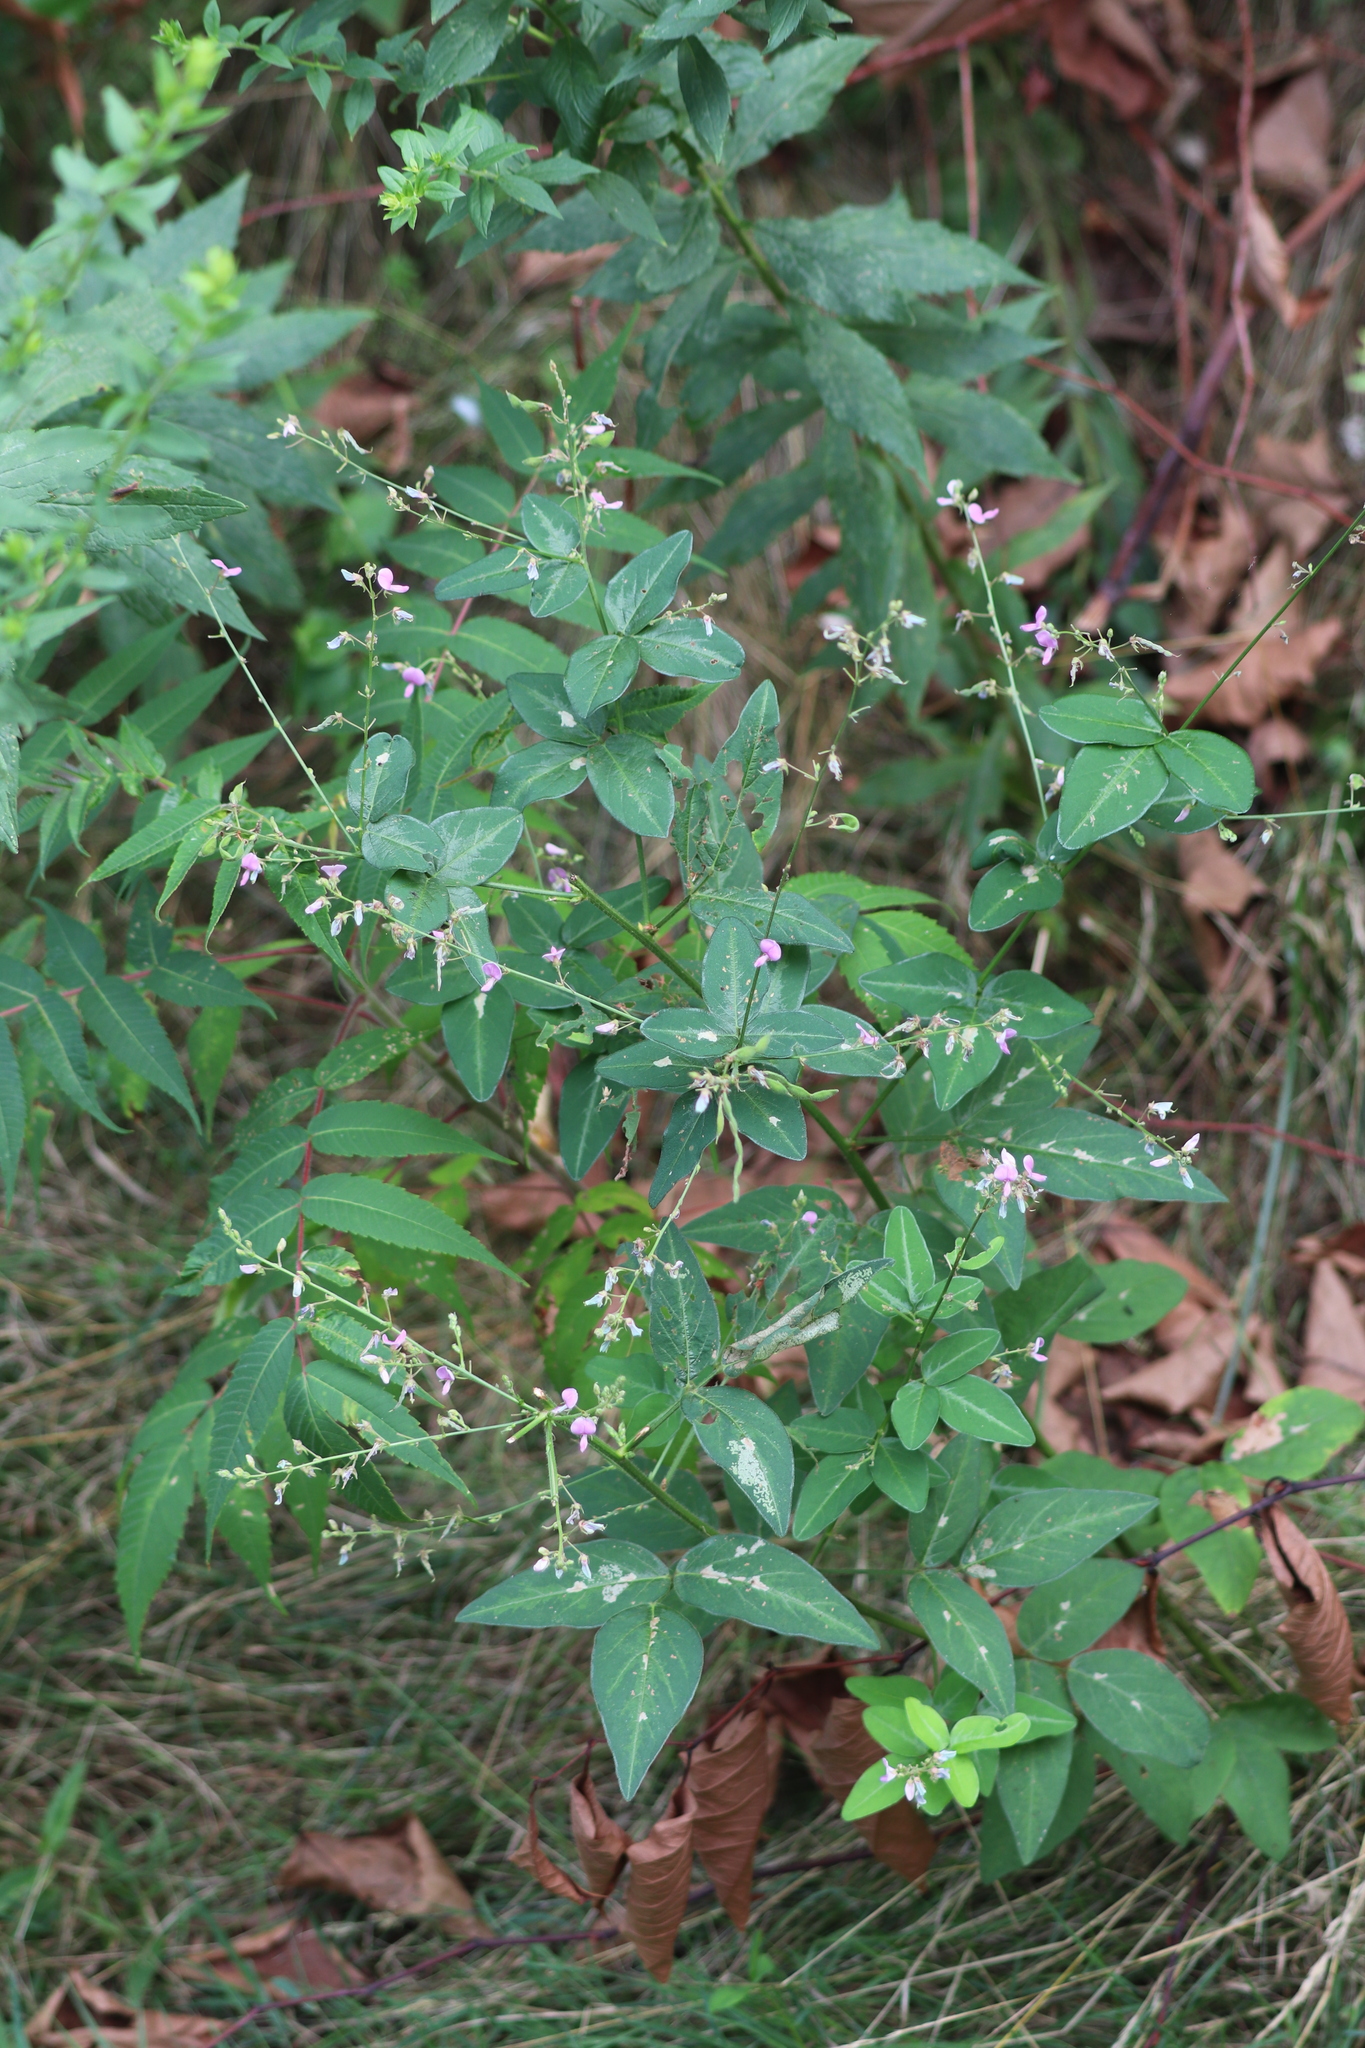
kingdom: Plantae
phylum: Tracheophyta
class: Magnoliopsida
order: Fabales
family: Fabaceae
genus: Desmodium
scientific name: Desmodium glabellum
